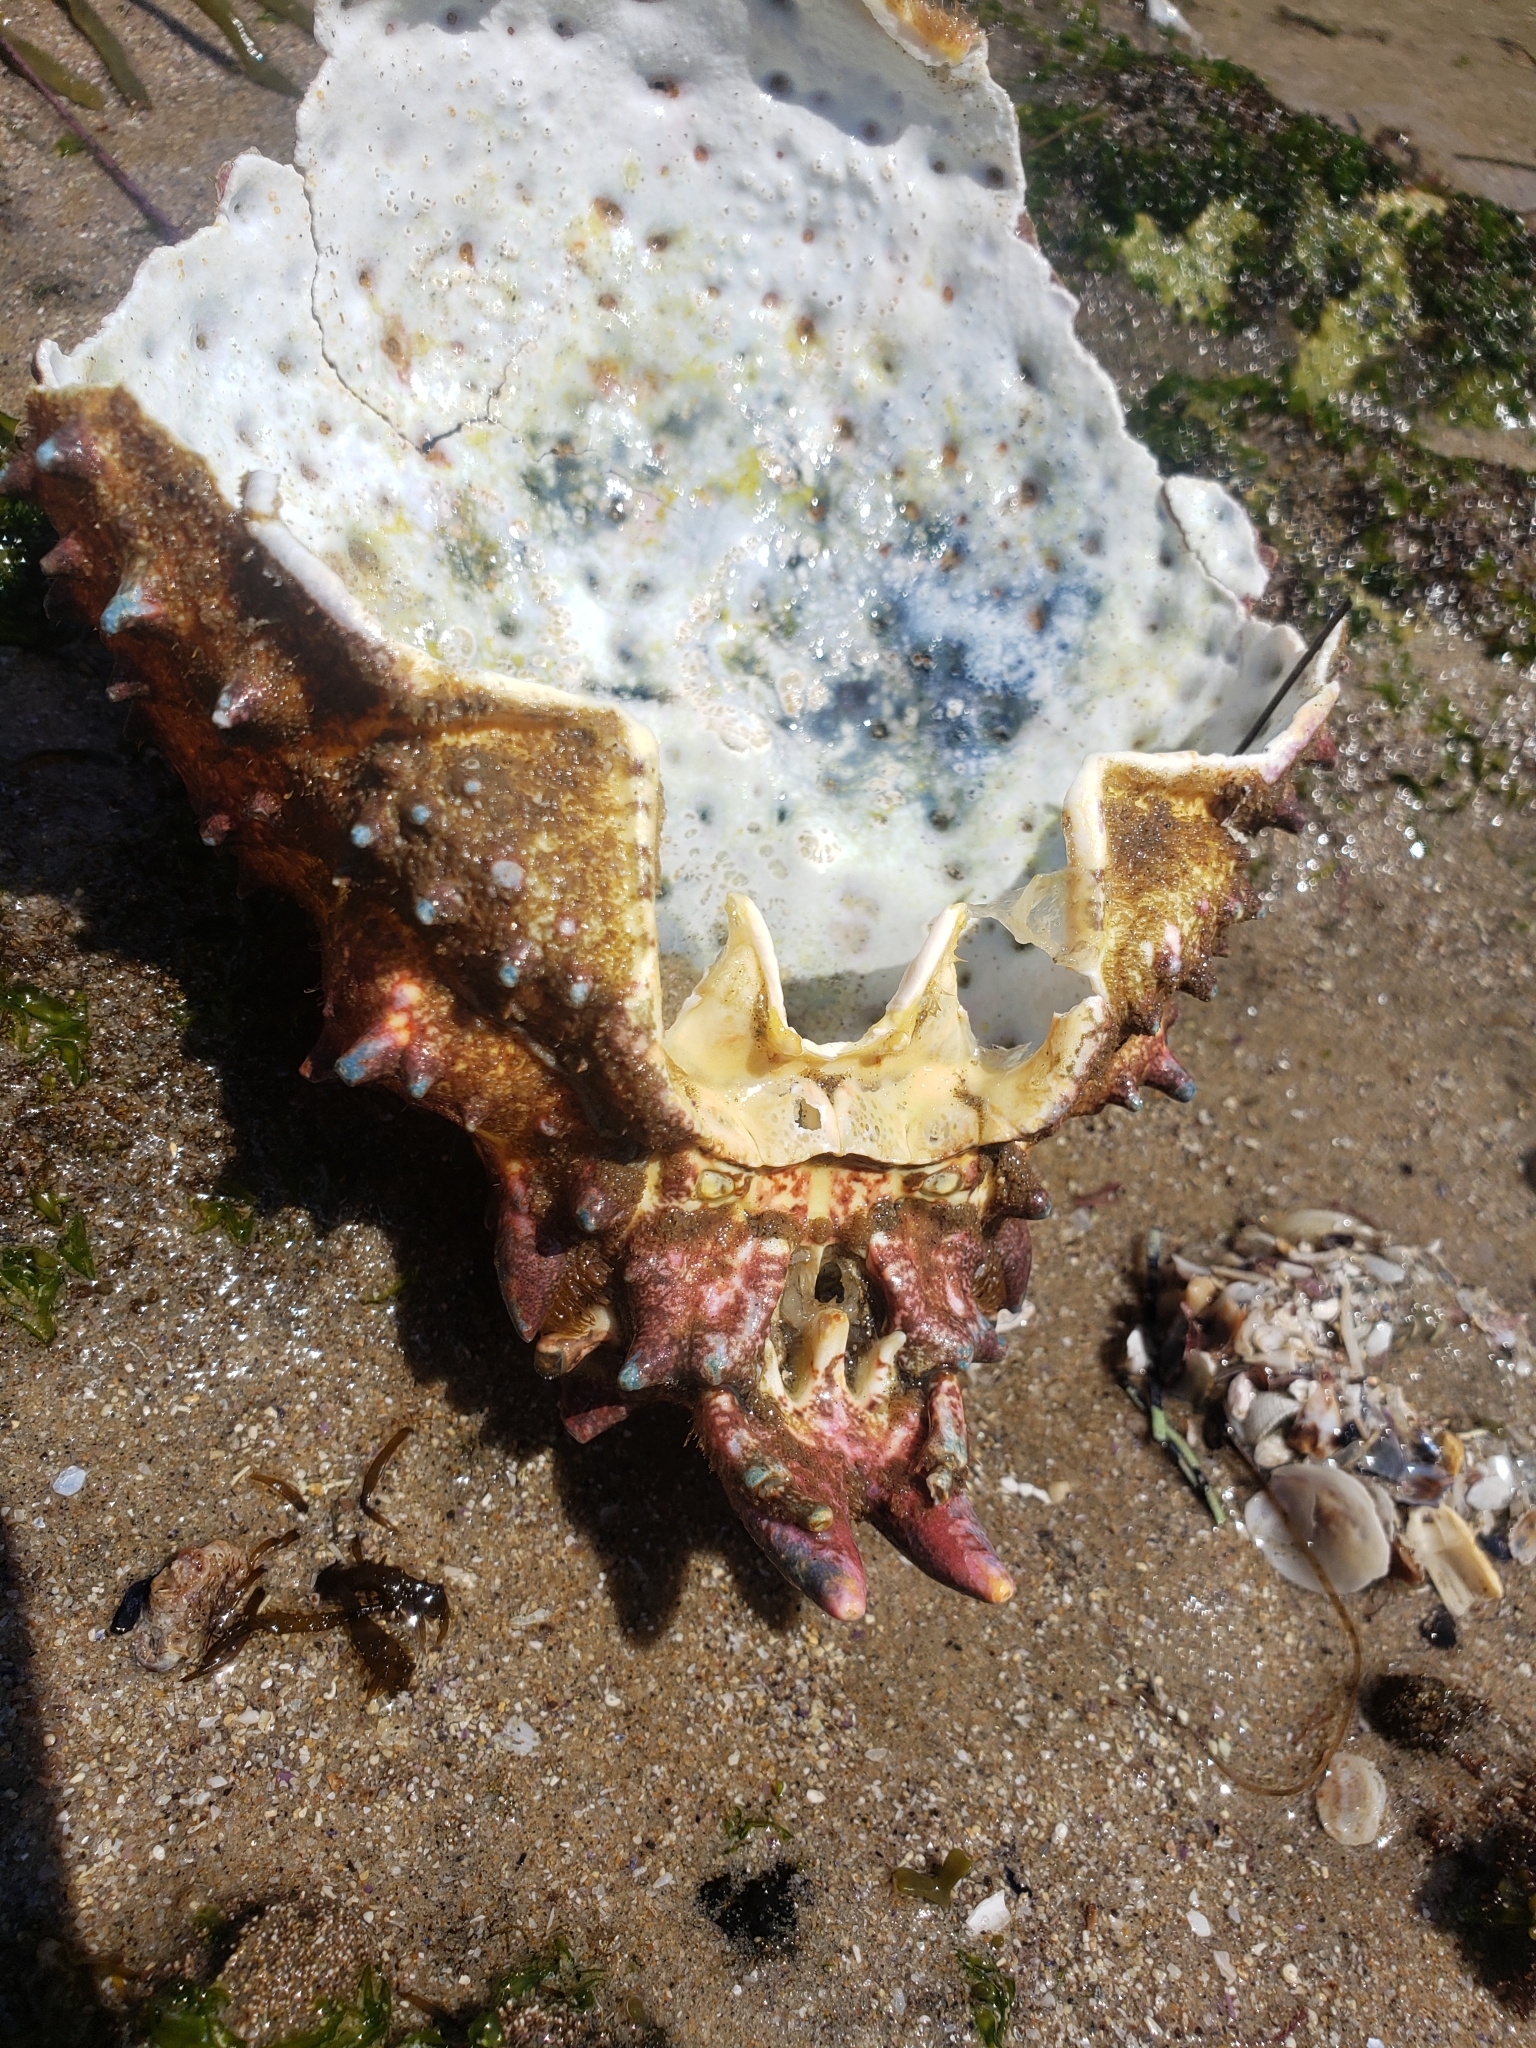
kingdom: Animalia
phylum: Arthropoda
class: Malacostraca
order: Decapoda
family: Epialtidae
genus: Loxorhynchus
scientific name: Loxorhynchus grandis
